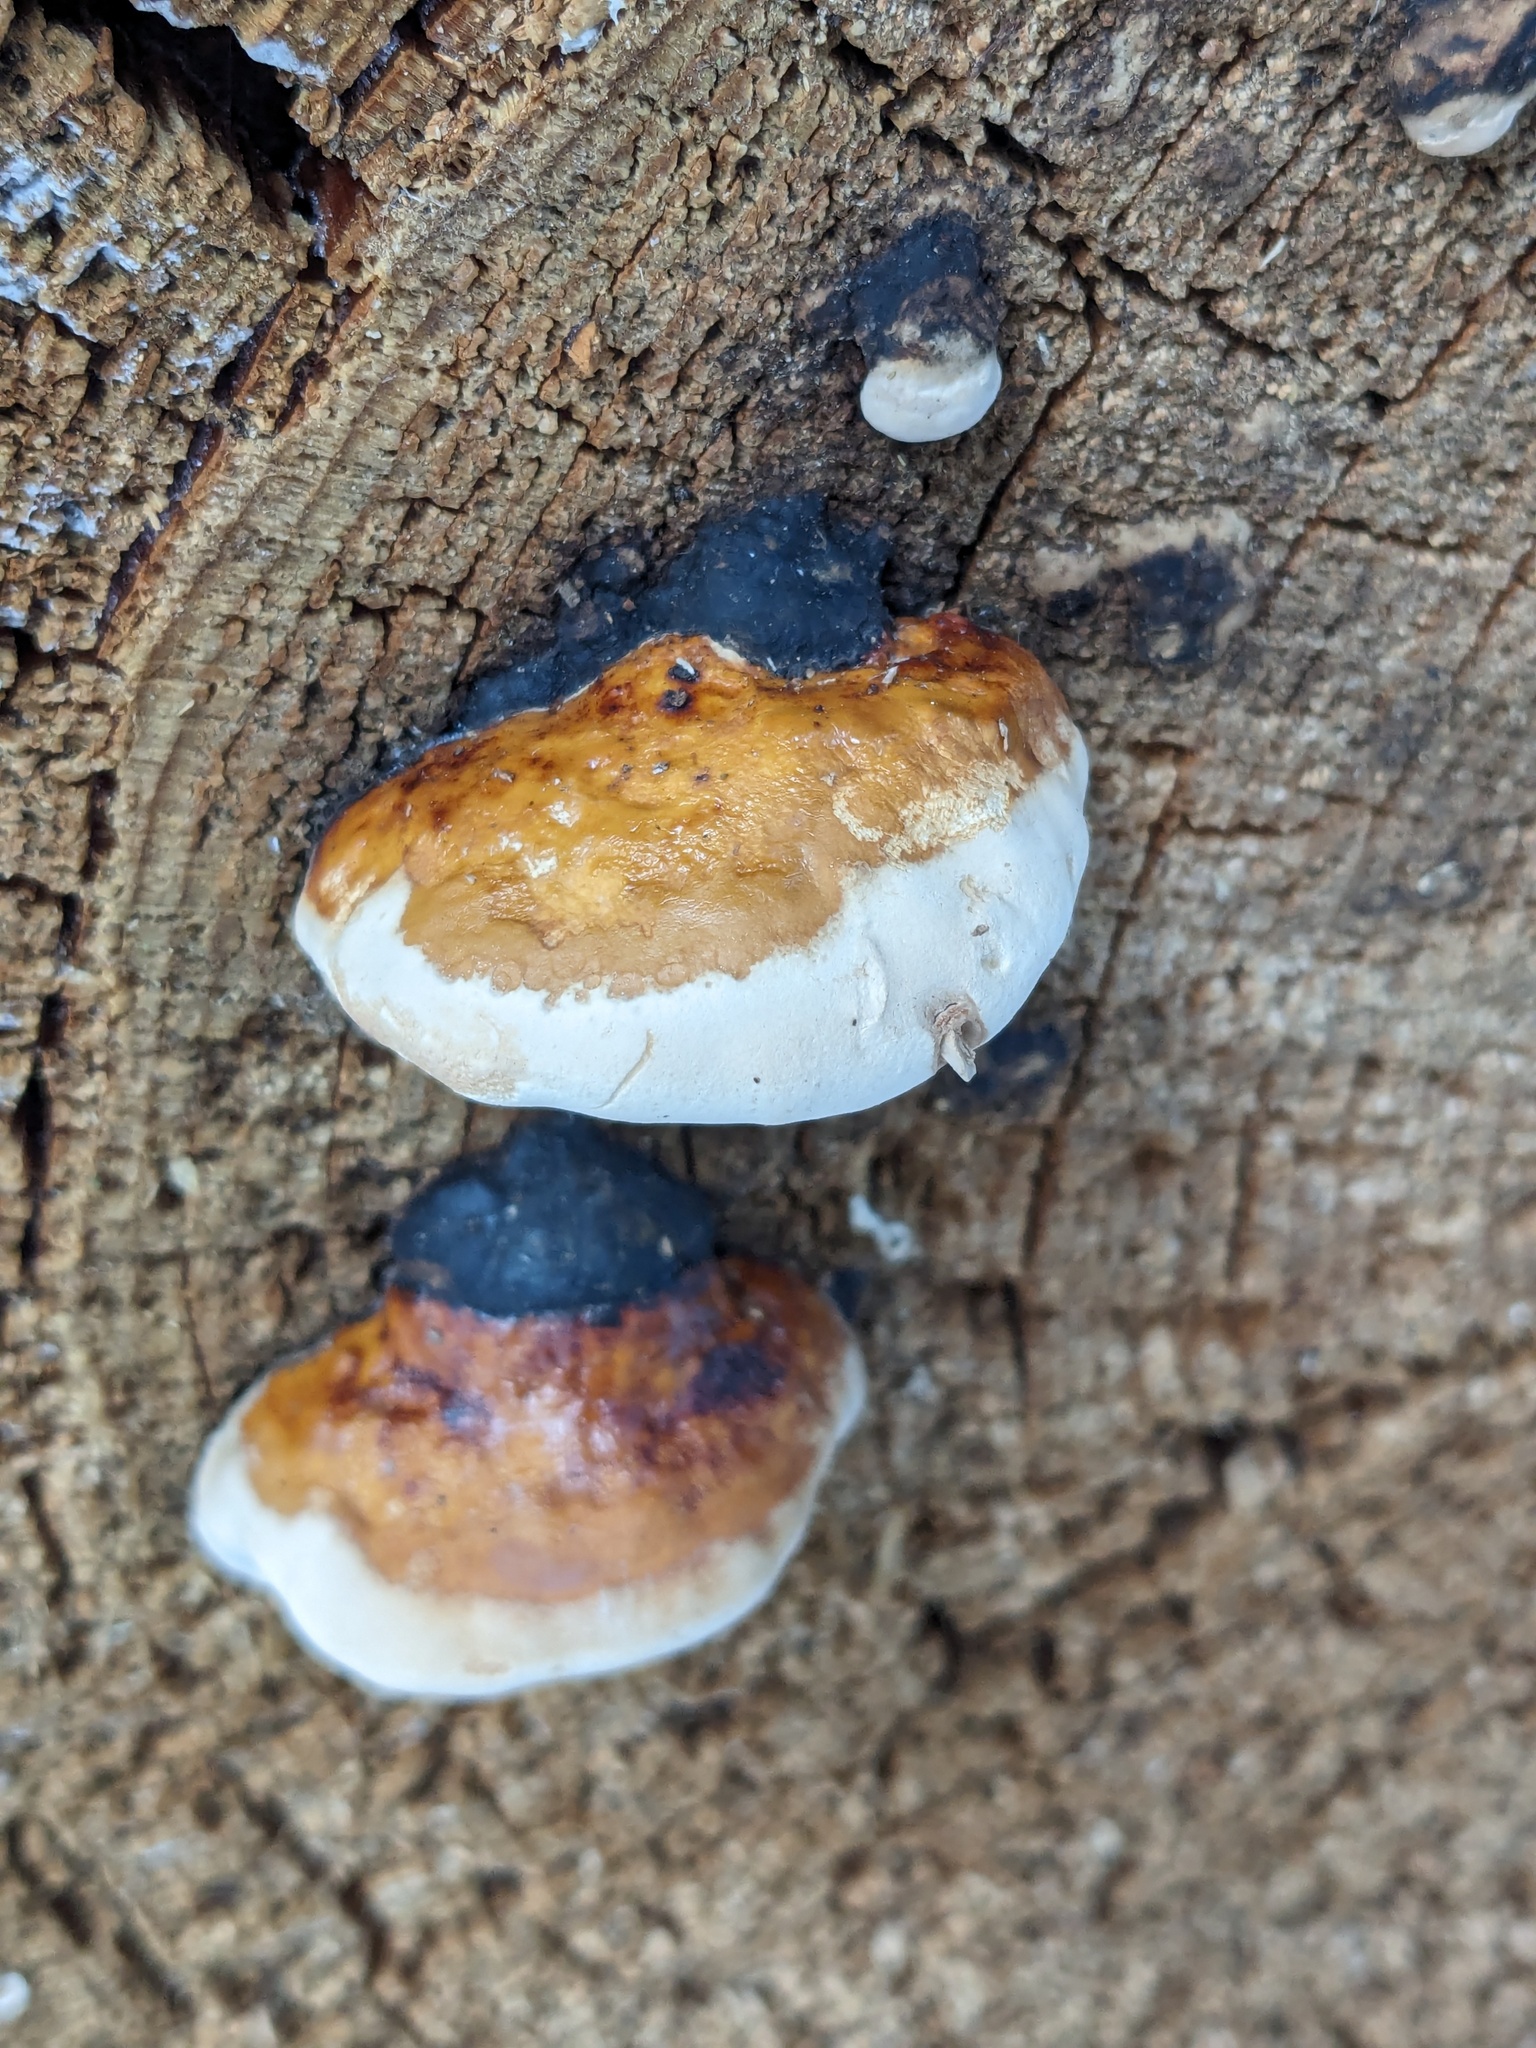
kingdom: Fungi
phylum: Basidiomycota
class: Agaricomycetes
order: Polyporales
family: Fomitopsidaceae
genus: Fomitopsis
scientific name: Fomitopsis mounceae
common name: Northern red belt
